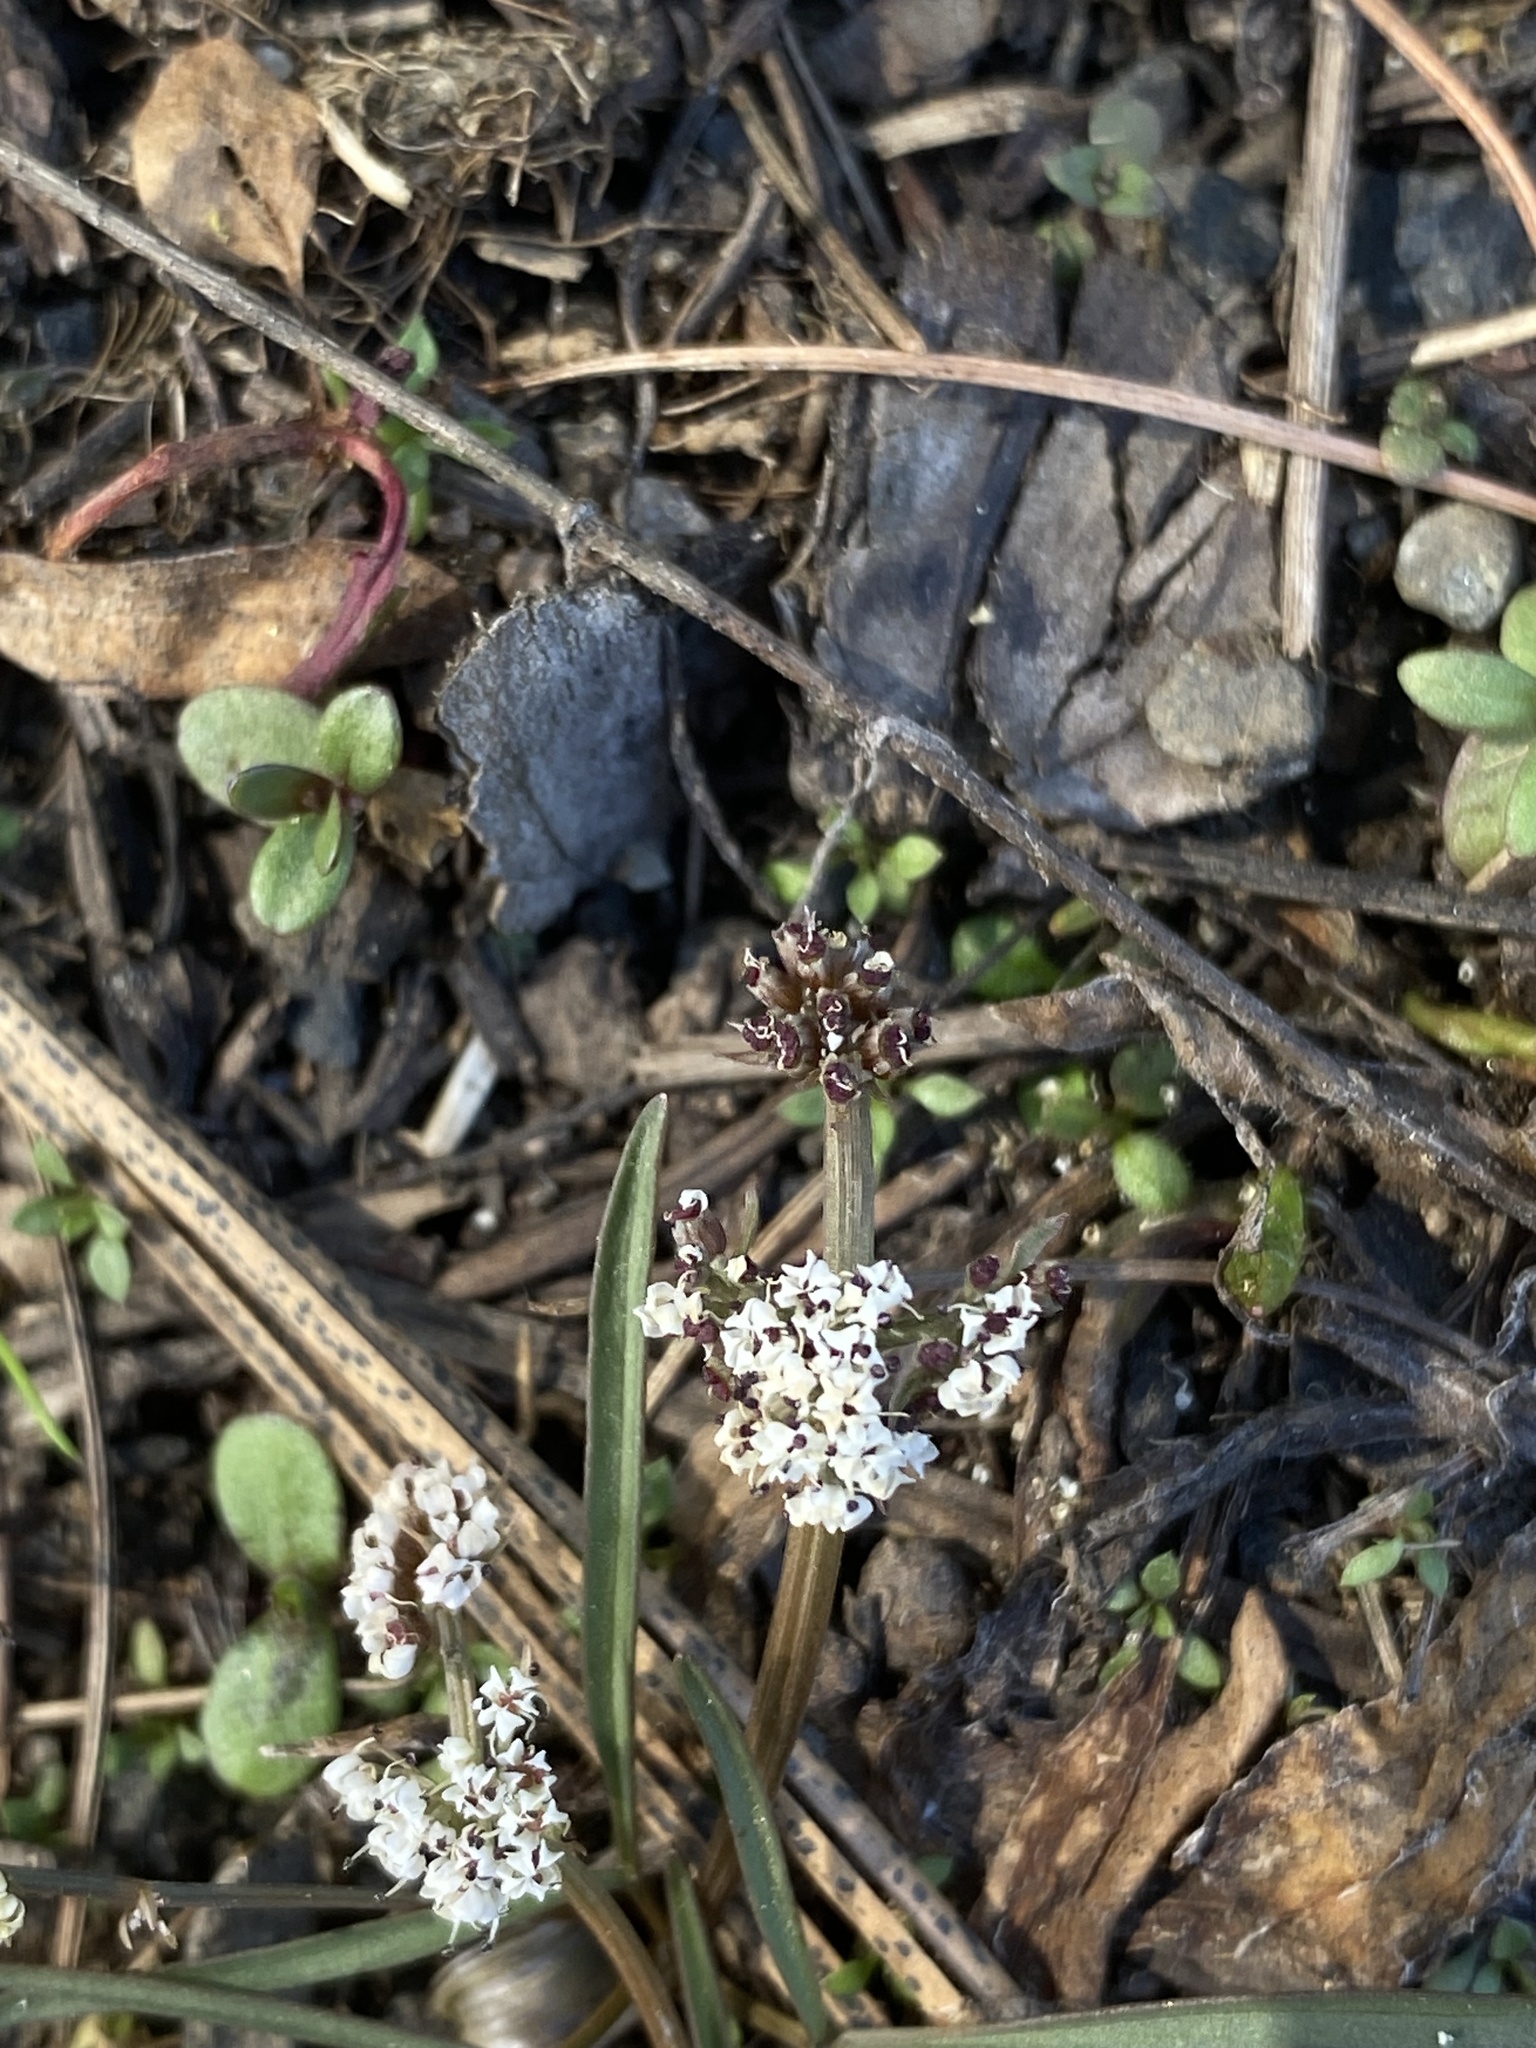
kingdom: Plantae
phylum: Tracheophyta
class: Magnoliopsida
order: Apiales
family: Apiaceae
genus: Lomatium
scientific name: Lomatium linearifolium
